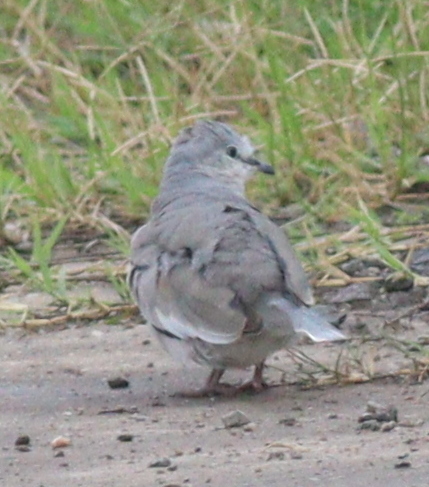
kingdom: Animalia
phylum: Chordata
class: Aves
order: Columbiformes
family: Columbidae
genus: Columbina
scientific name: Columbina picui
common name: Picui ground dove
